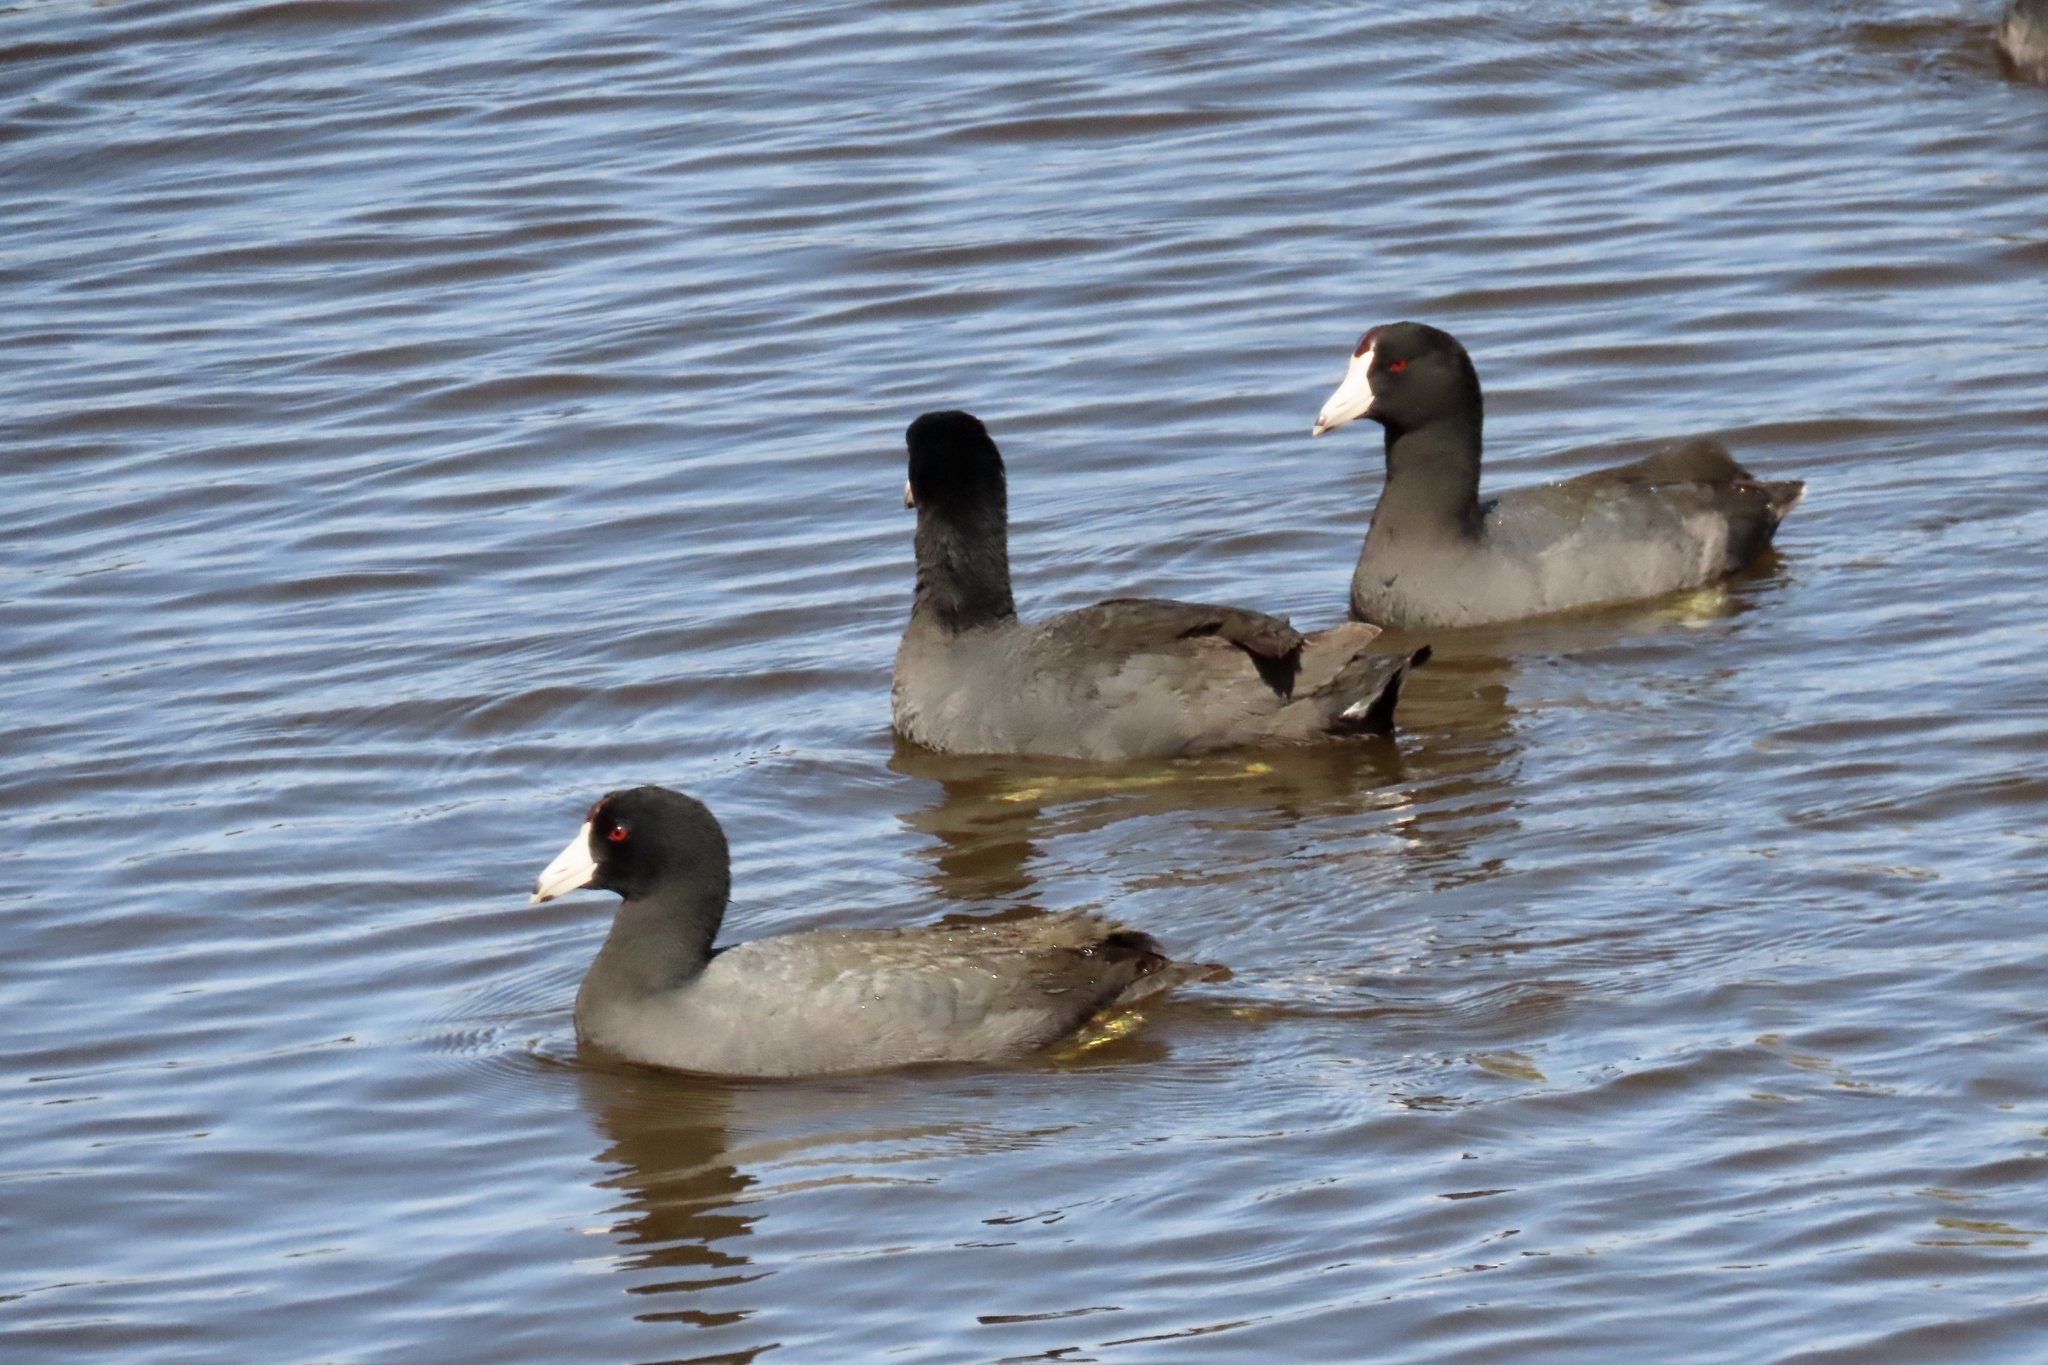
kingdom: Animalia
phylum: Chordata
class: Aves
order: Gruiformes
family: Rallidae
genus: Fulica
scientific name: Fulica americana
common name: American coot
